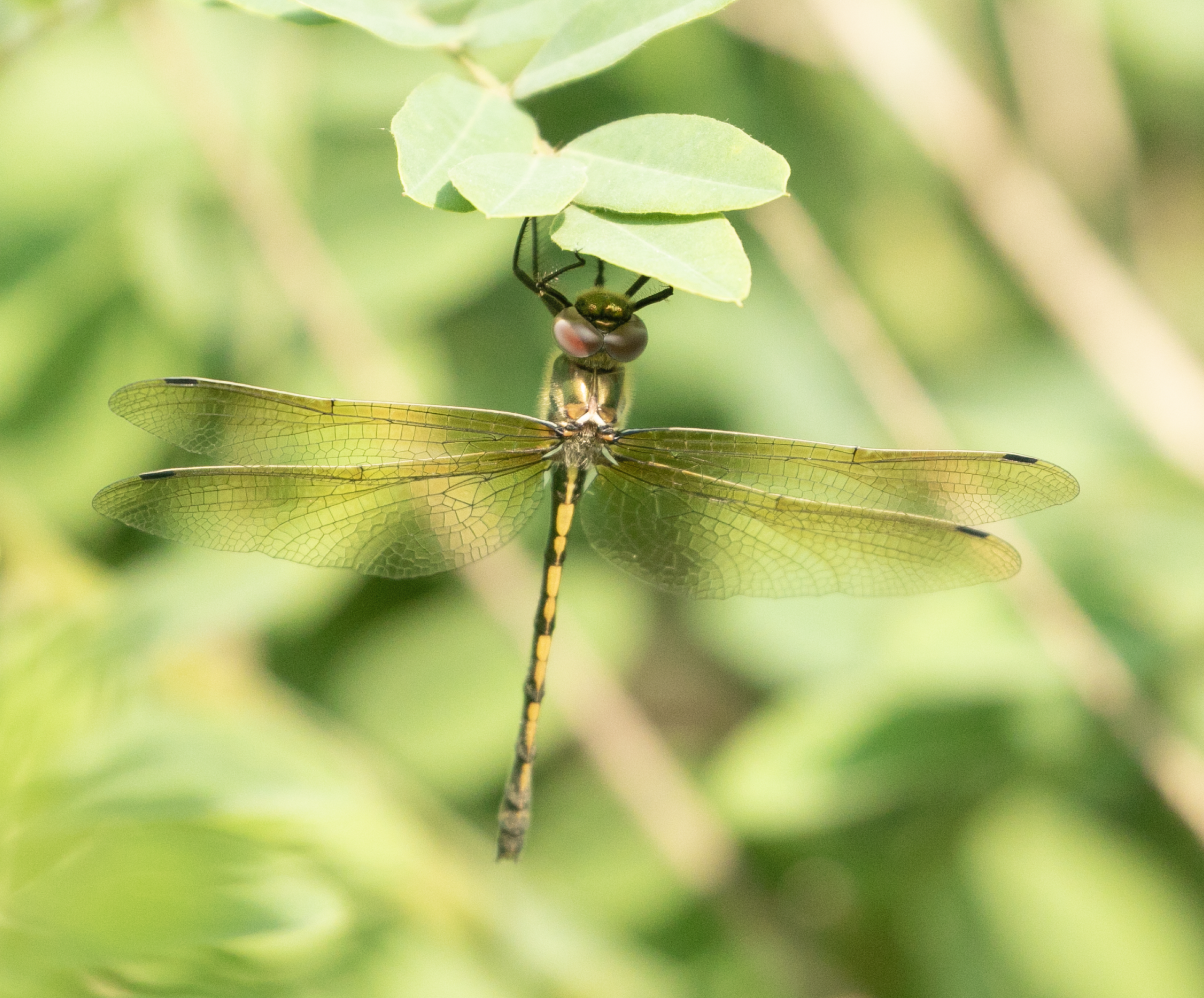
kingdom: Animalia
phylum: Arthropoda
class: Insecta
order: Odonata
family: Corduliidae
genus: Oxygastra
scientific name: Oxygastra curtisii
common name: Orange-spotted emerald
